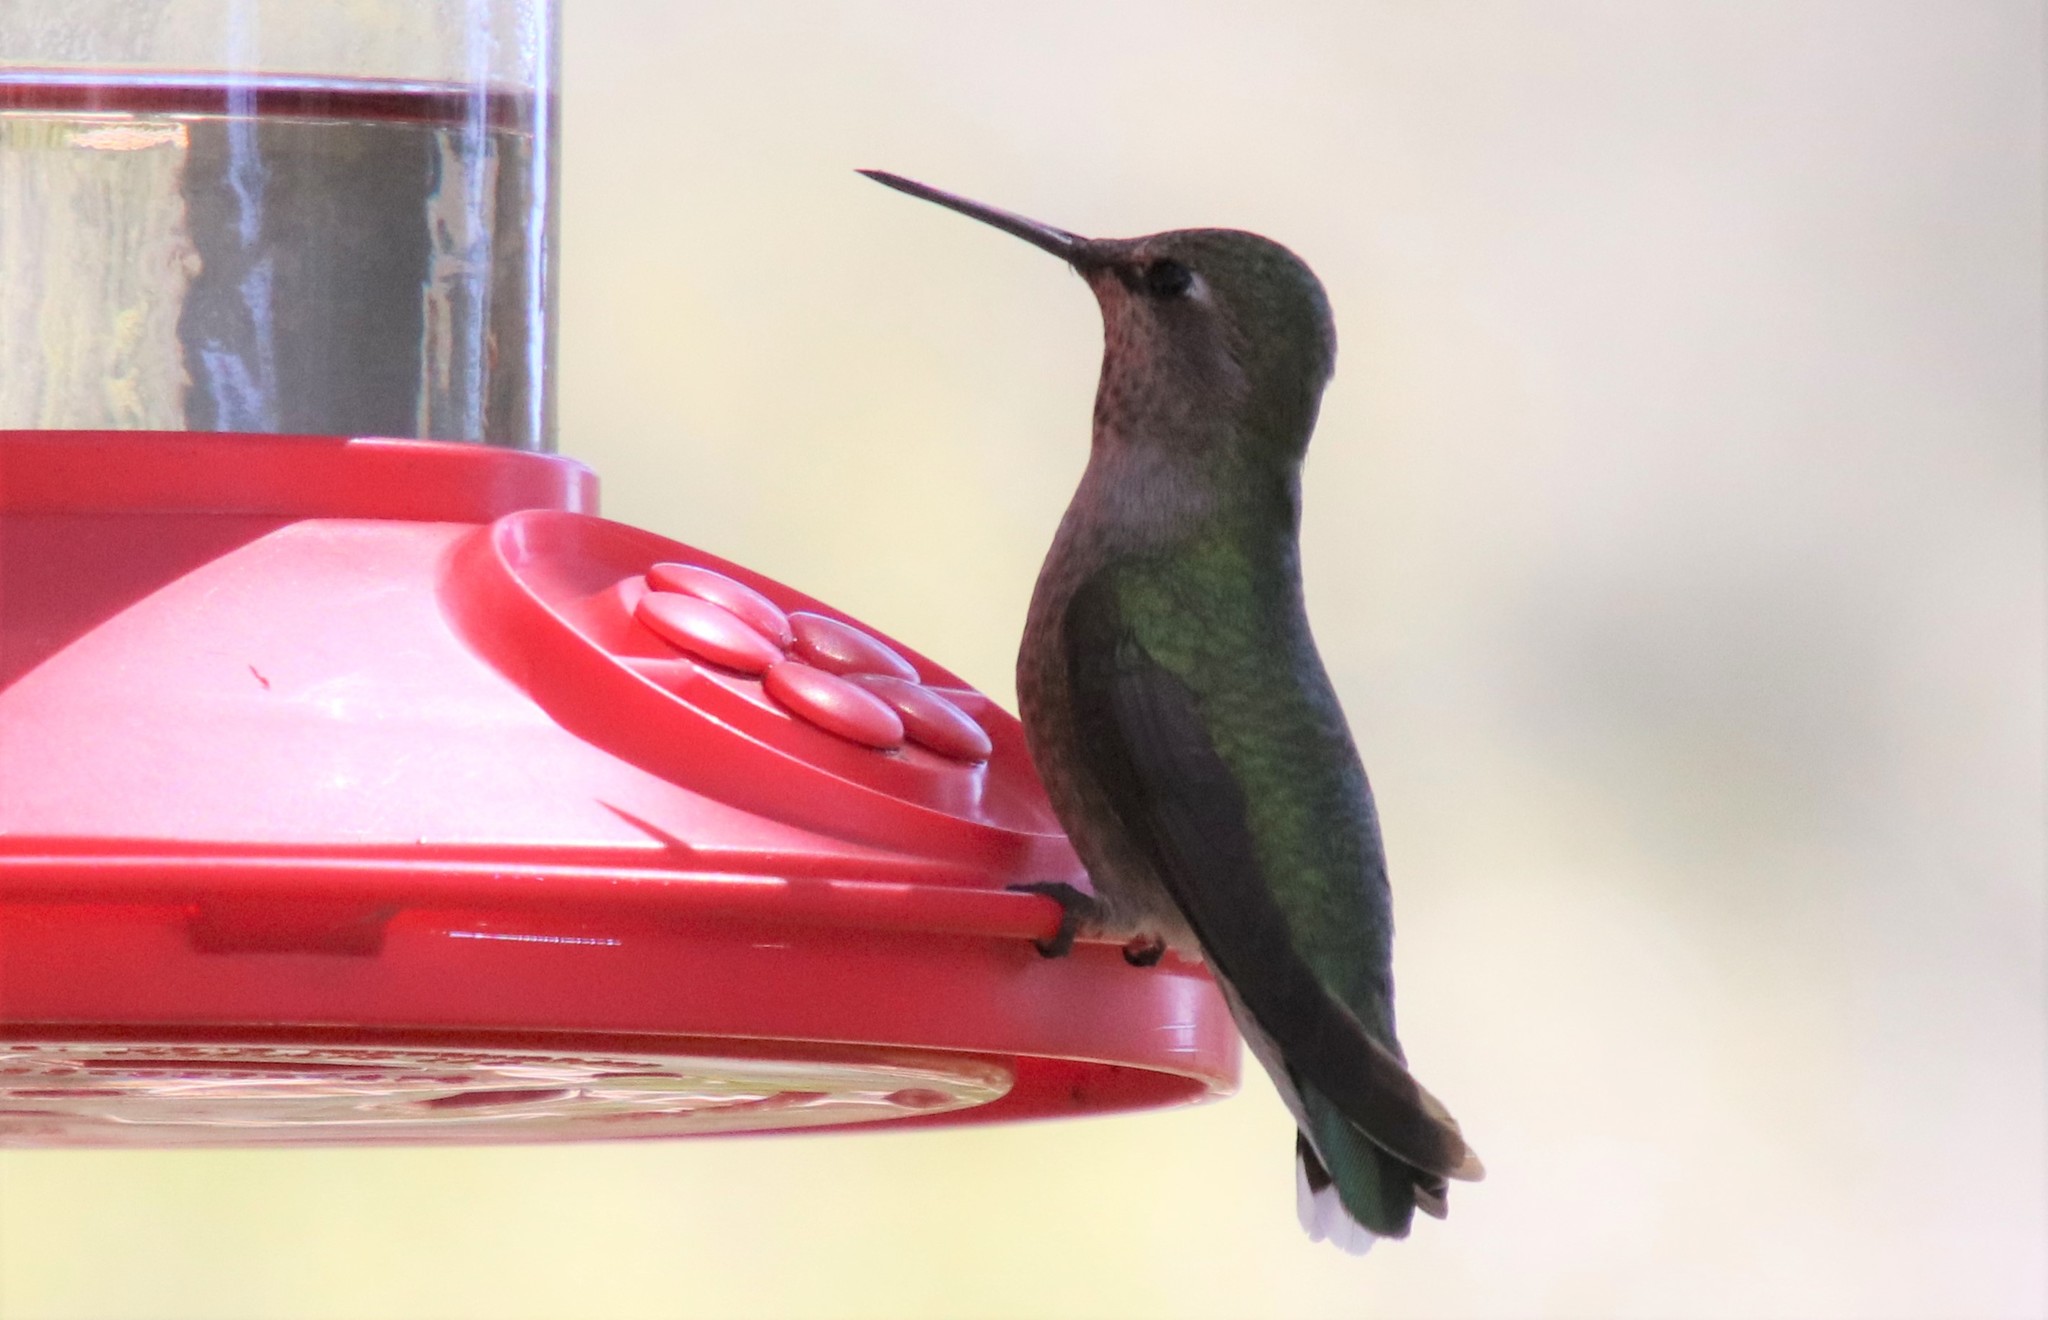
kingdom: Animalia
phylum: Chordata
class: Aves
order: Apodiformes
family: Trochilidae
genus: Calypte
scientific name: Calypte anna
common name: Anna's hummingbird
